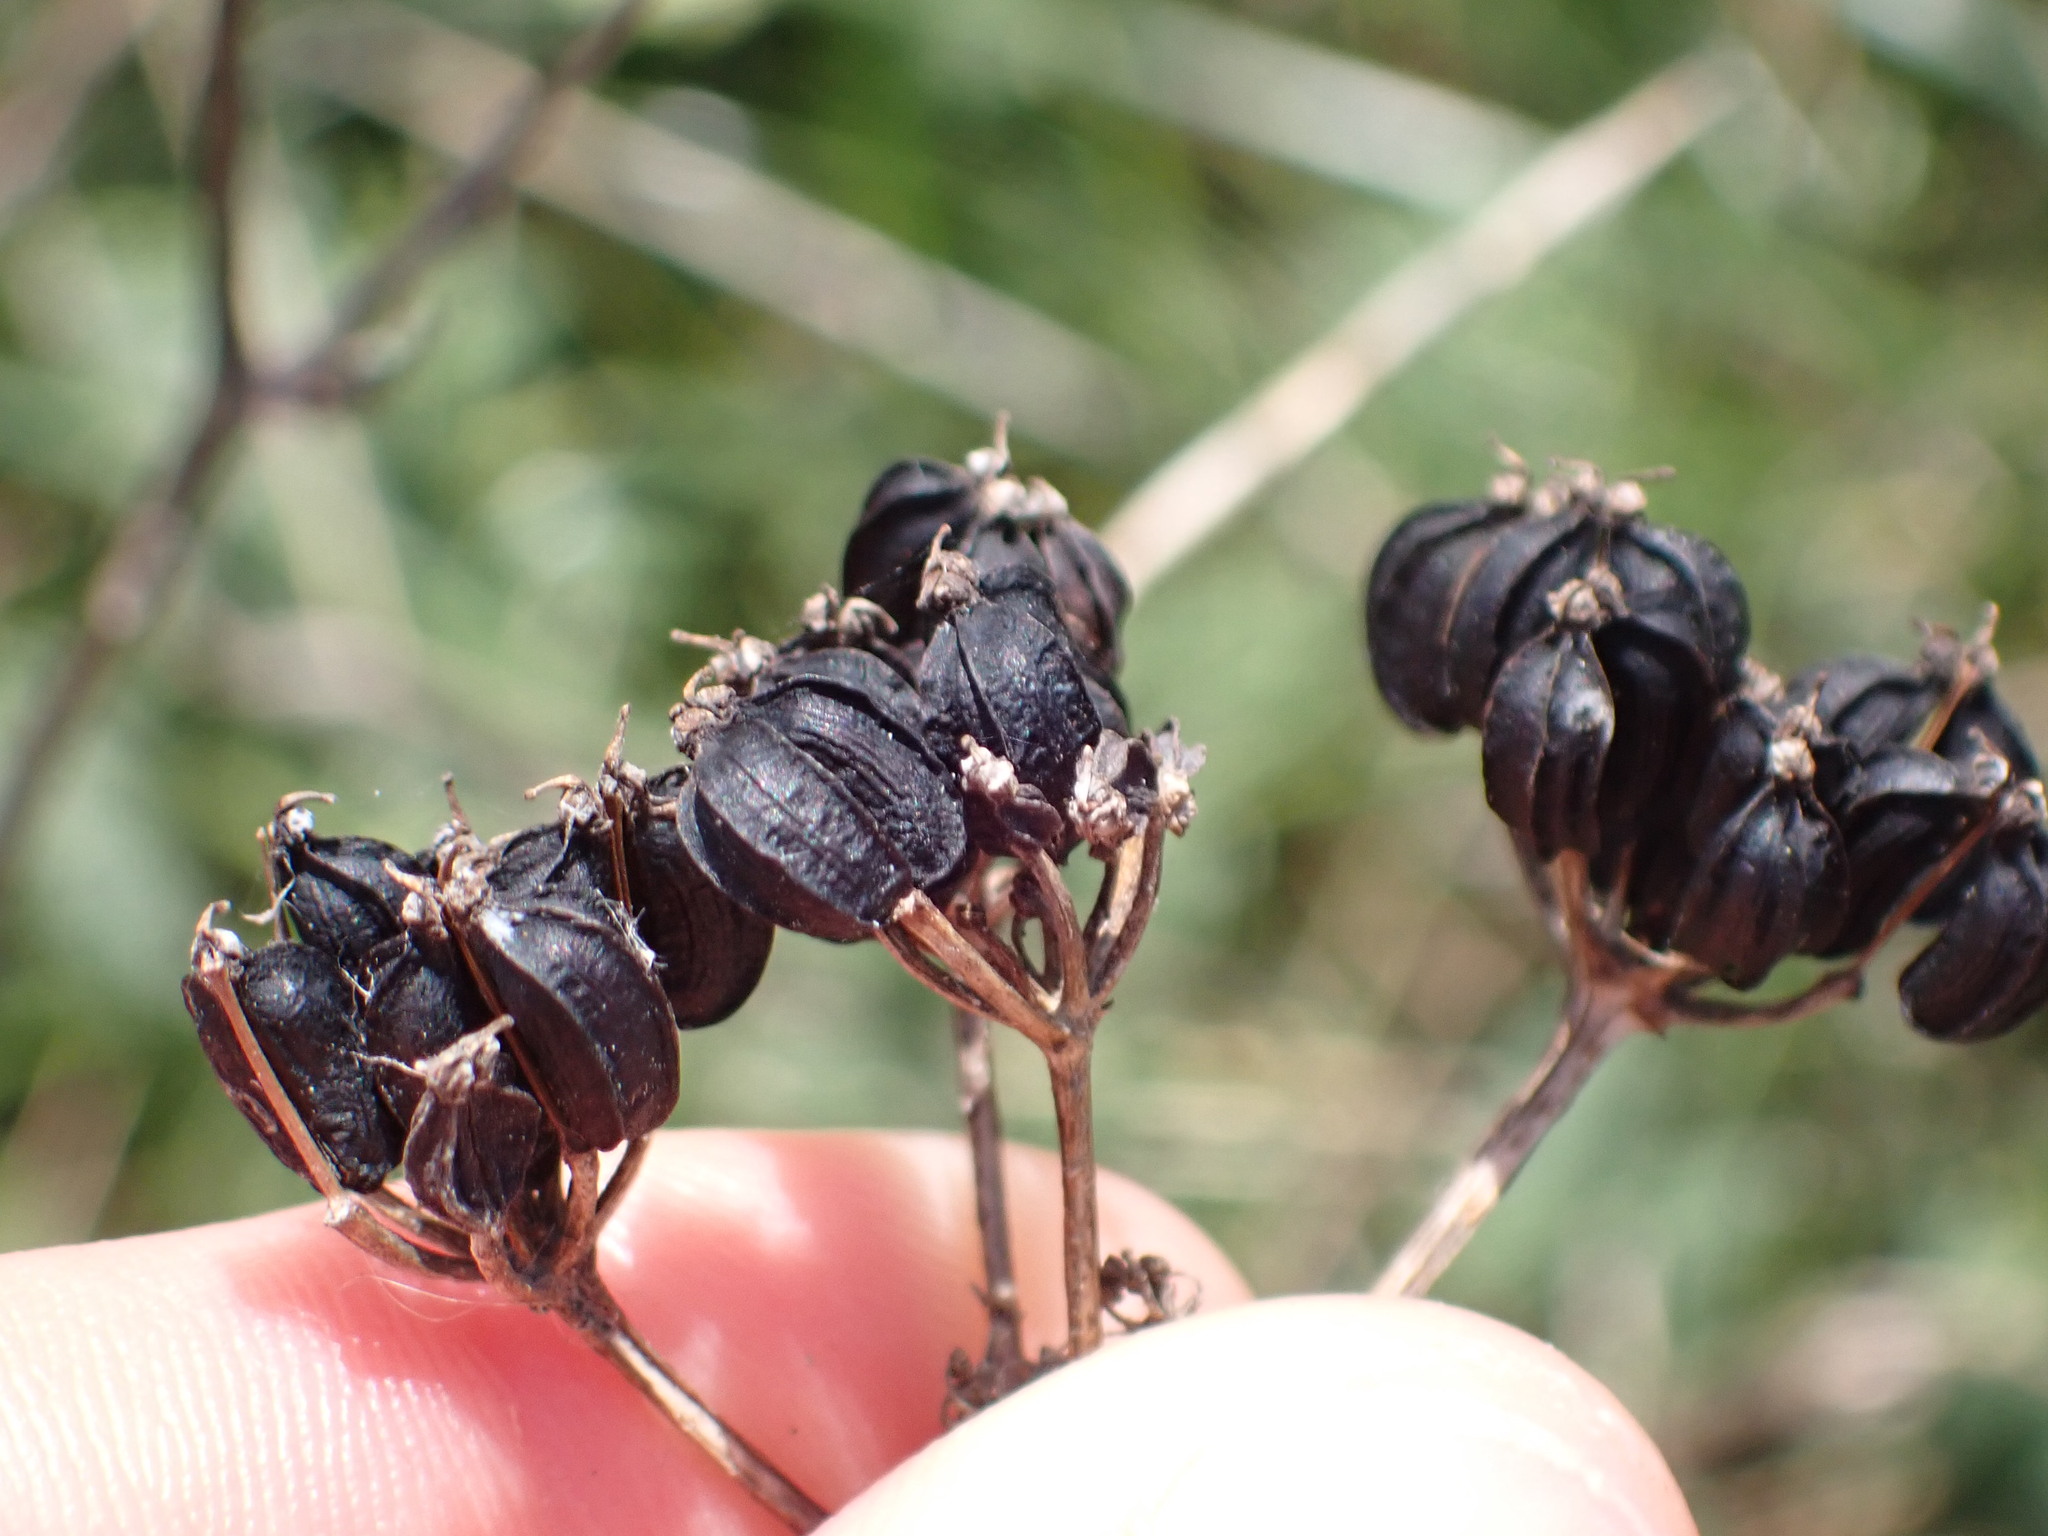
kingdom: Plantae
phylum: Tracheophyta
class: Magnoliopsida
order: Apiales
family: Apiaceae
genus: Smyrnium
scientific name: Smyrnium olusatrum
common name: Alexanders
